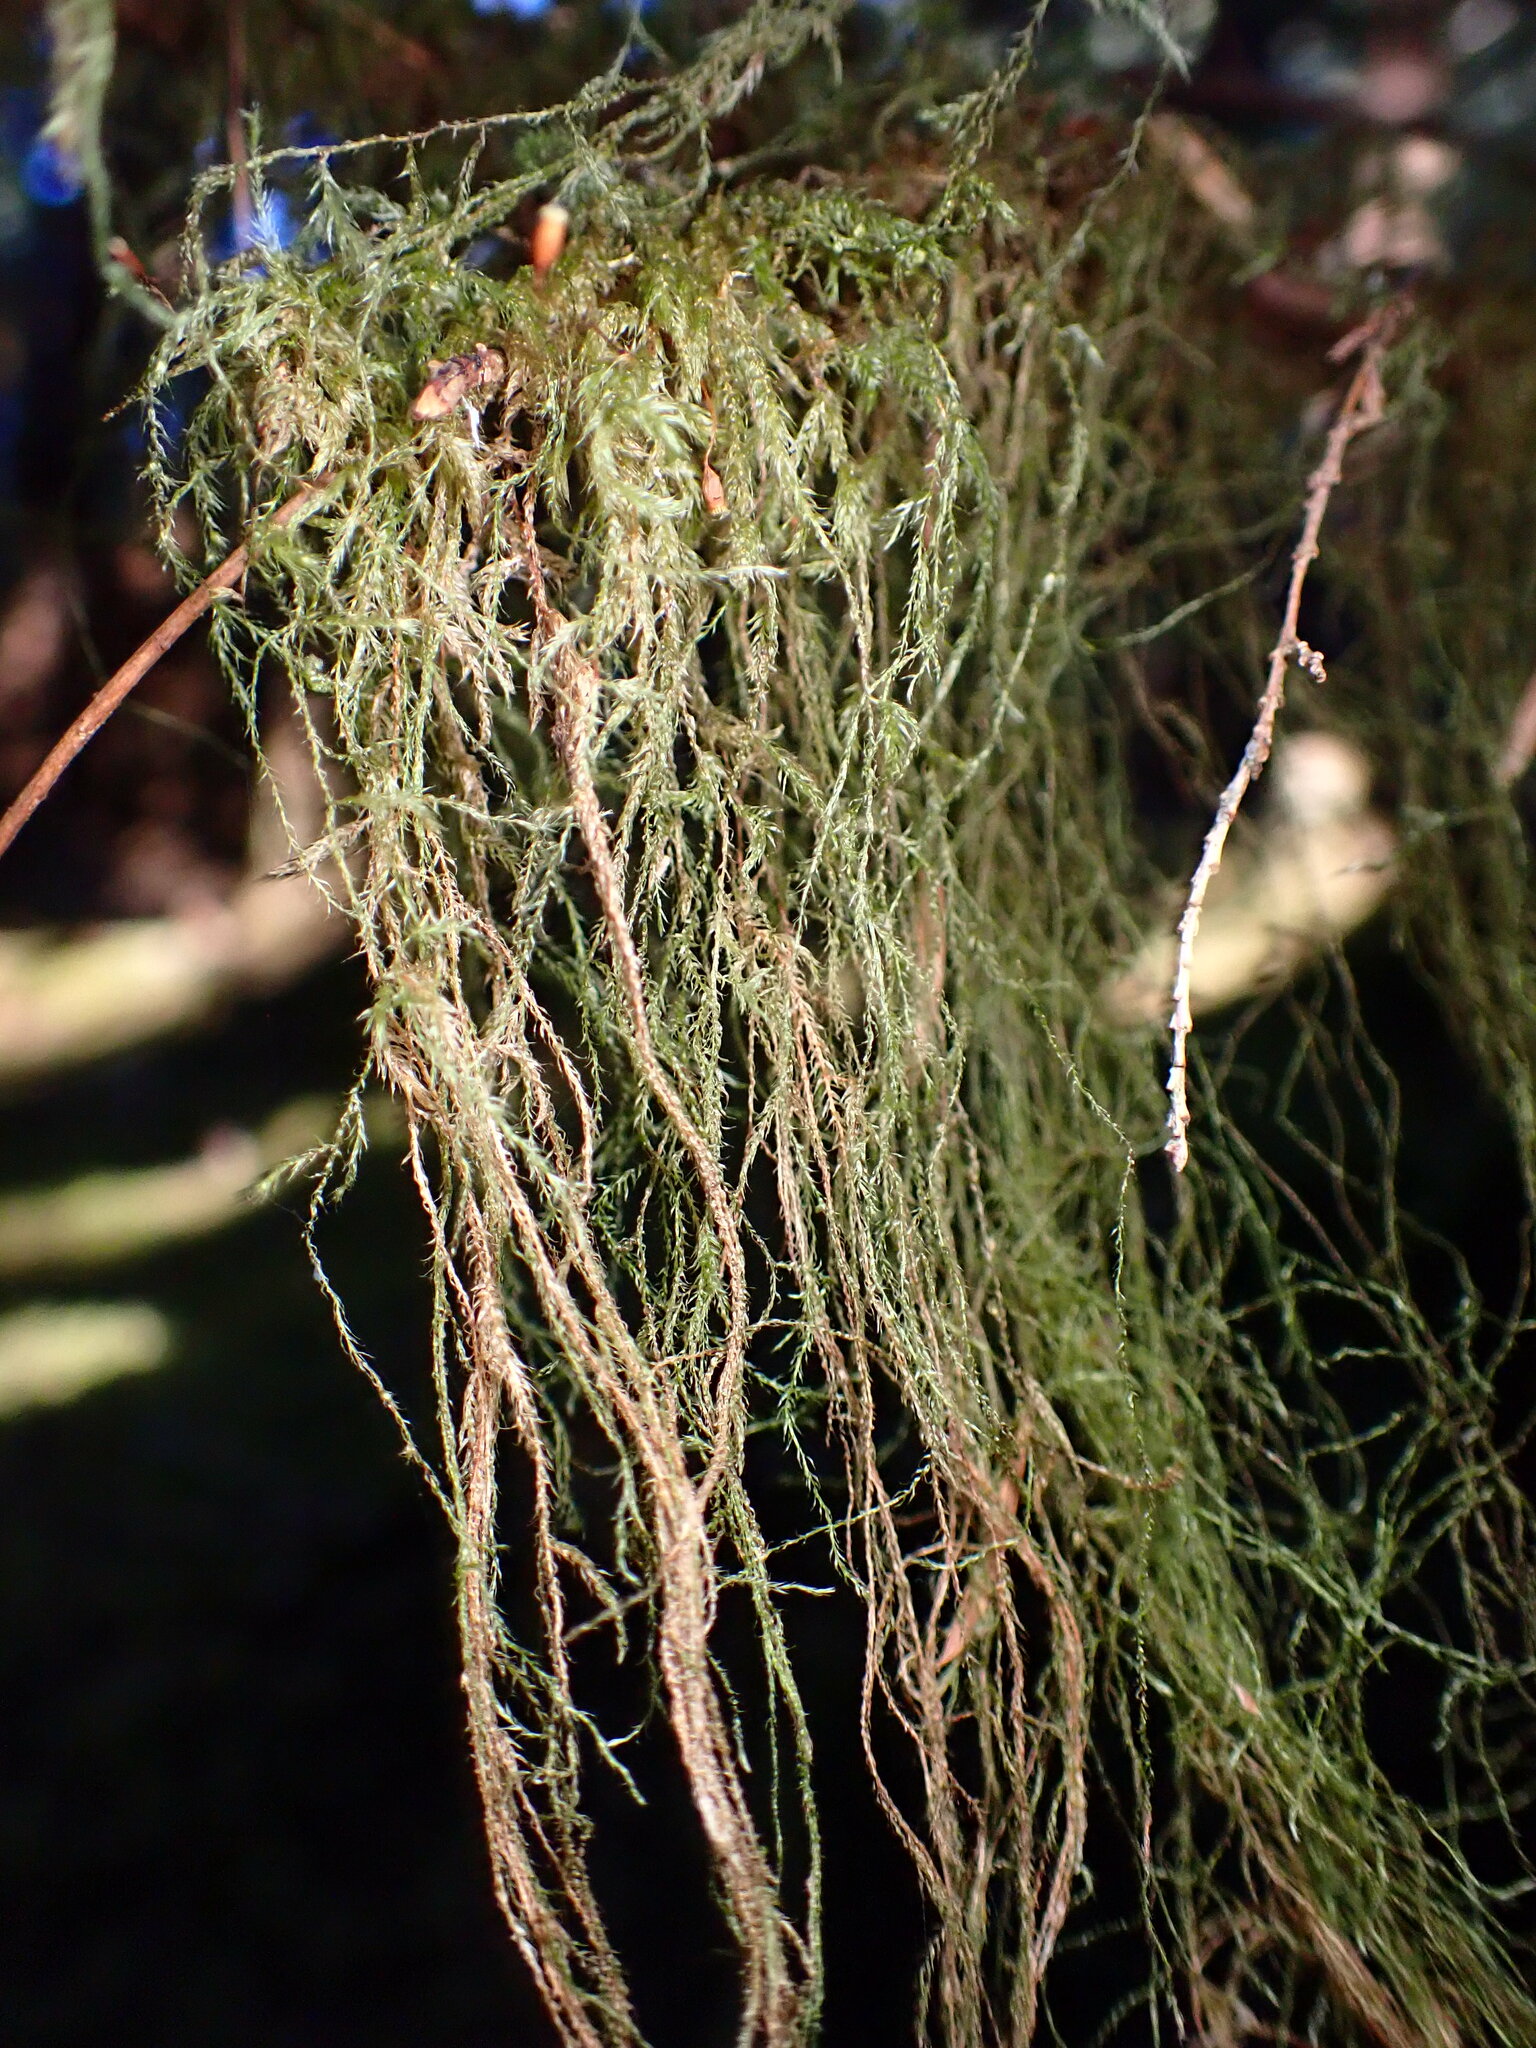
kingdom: Plantae
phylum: Bryophyta
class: Bryopsida
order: Hypnales
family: Lembophyllaceae
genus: Pseudisothecium
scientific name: Pseudisothecium stoloniferum
